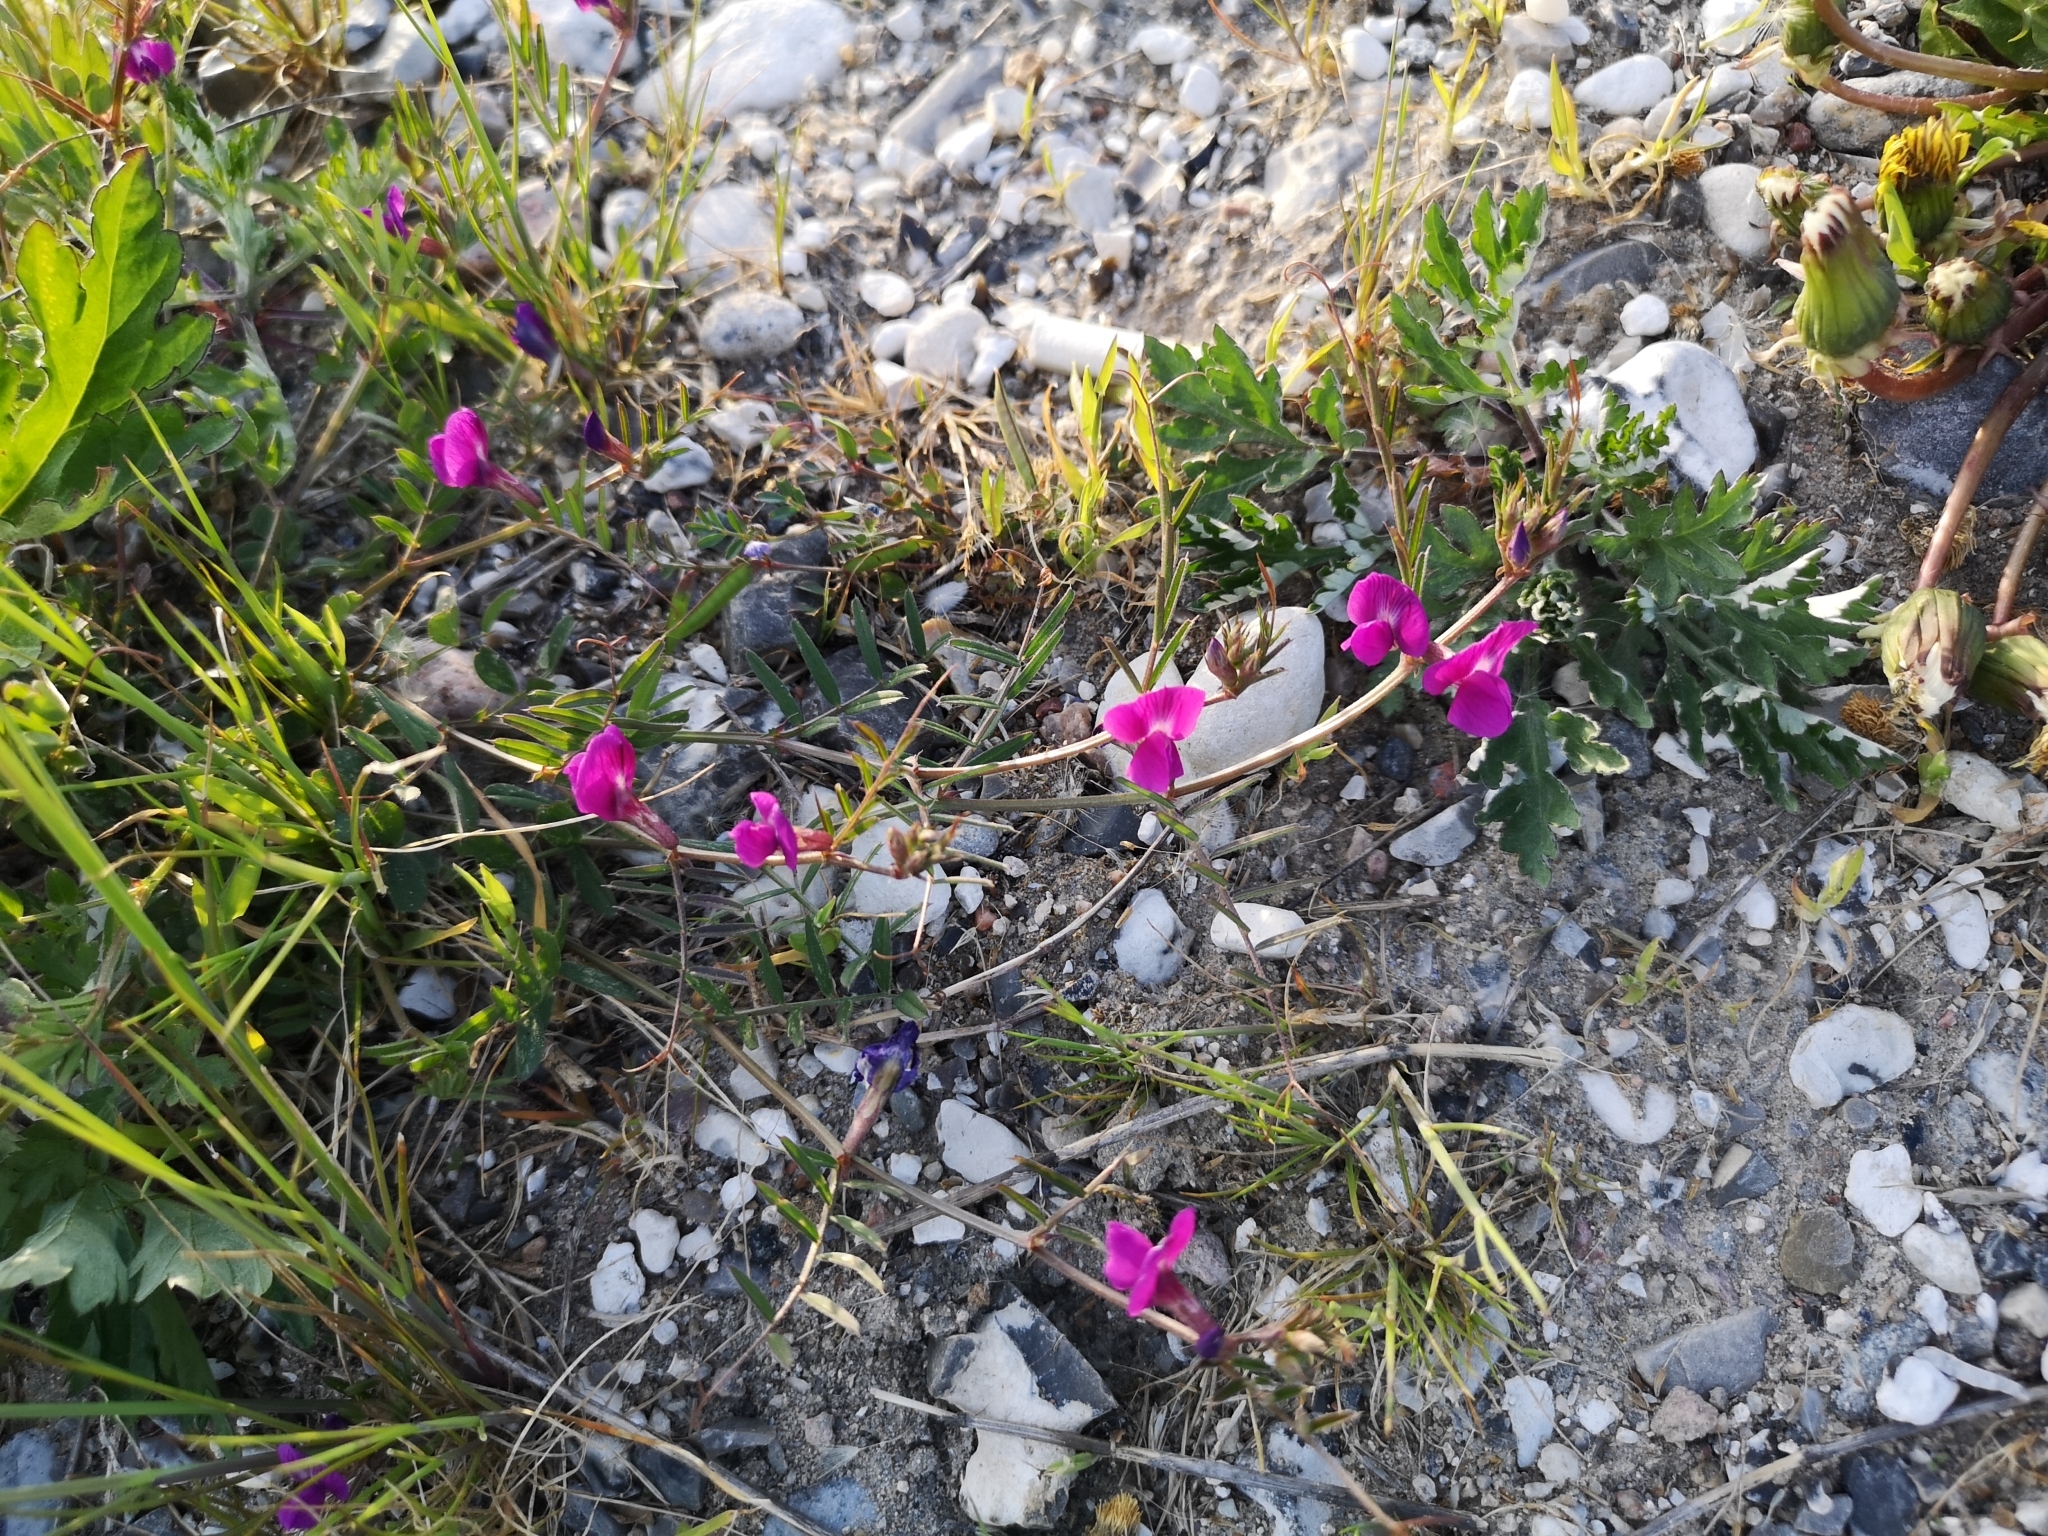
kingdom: Plantae
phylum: Tracheophyta
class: Magnoliopsida
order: Fabales
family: Fabaceae
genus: Vicia
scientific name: Vicia sativa
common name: Garden vetch
